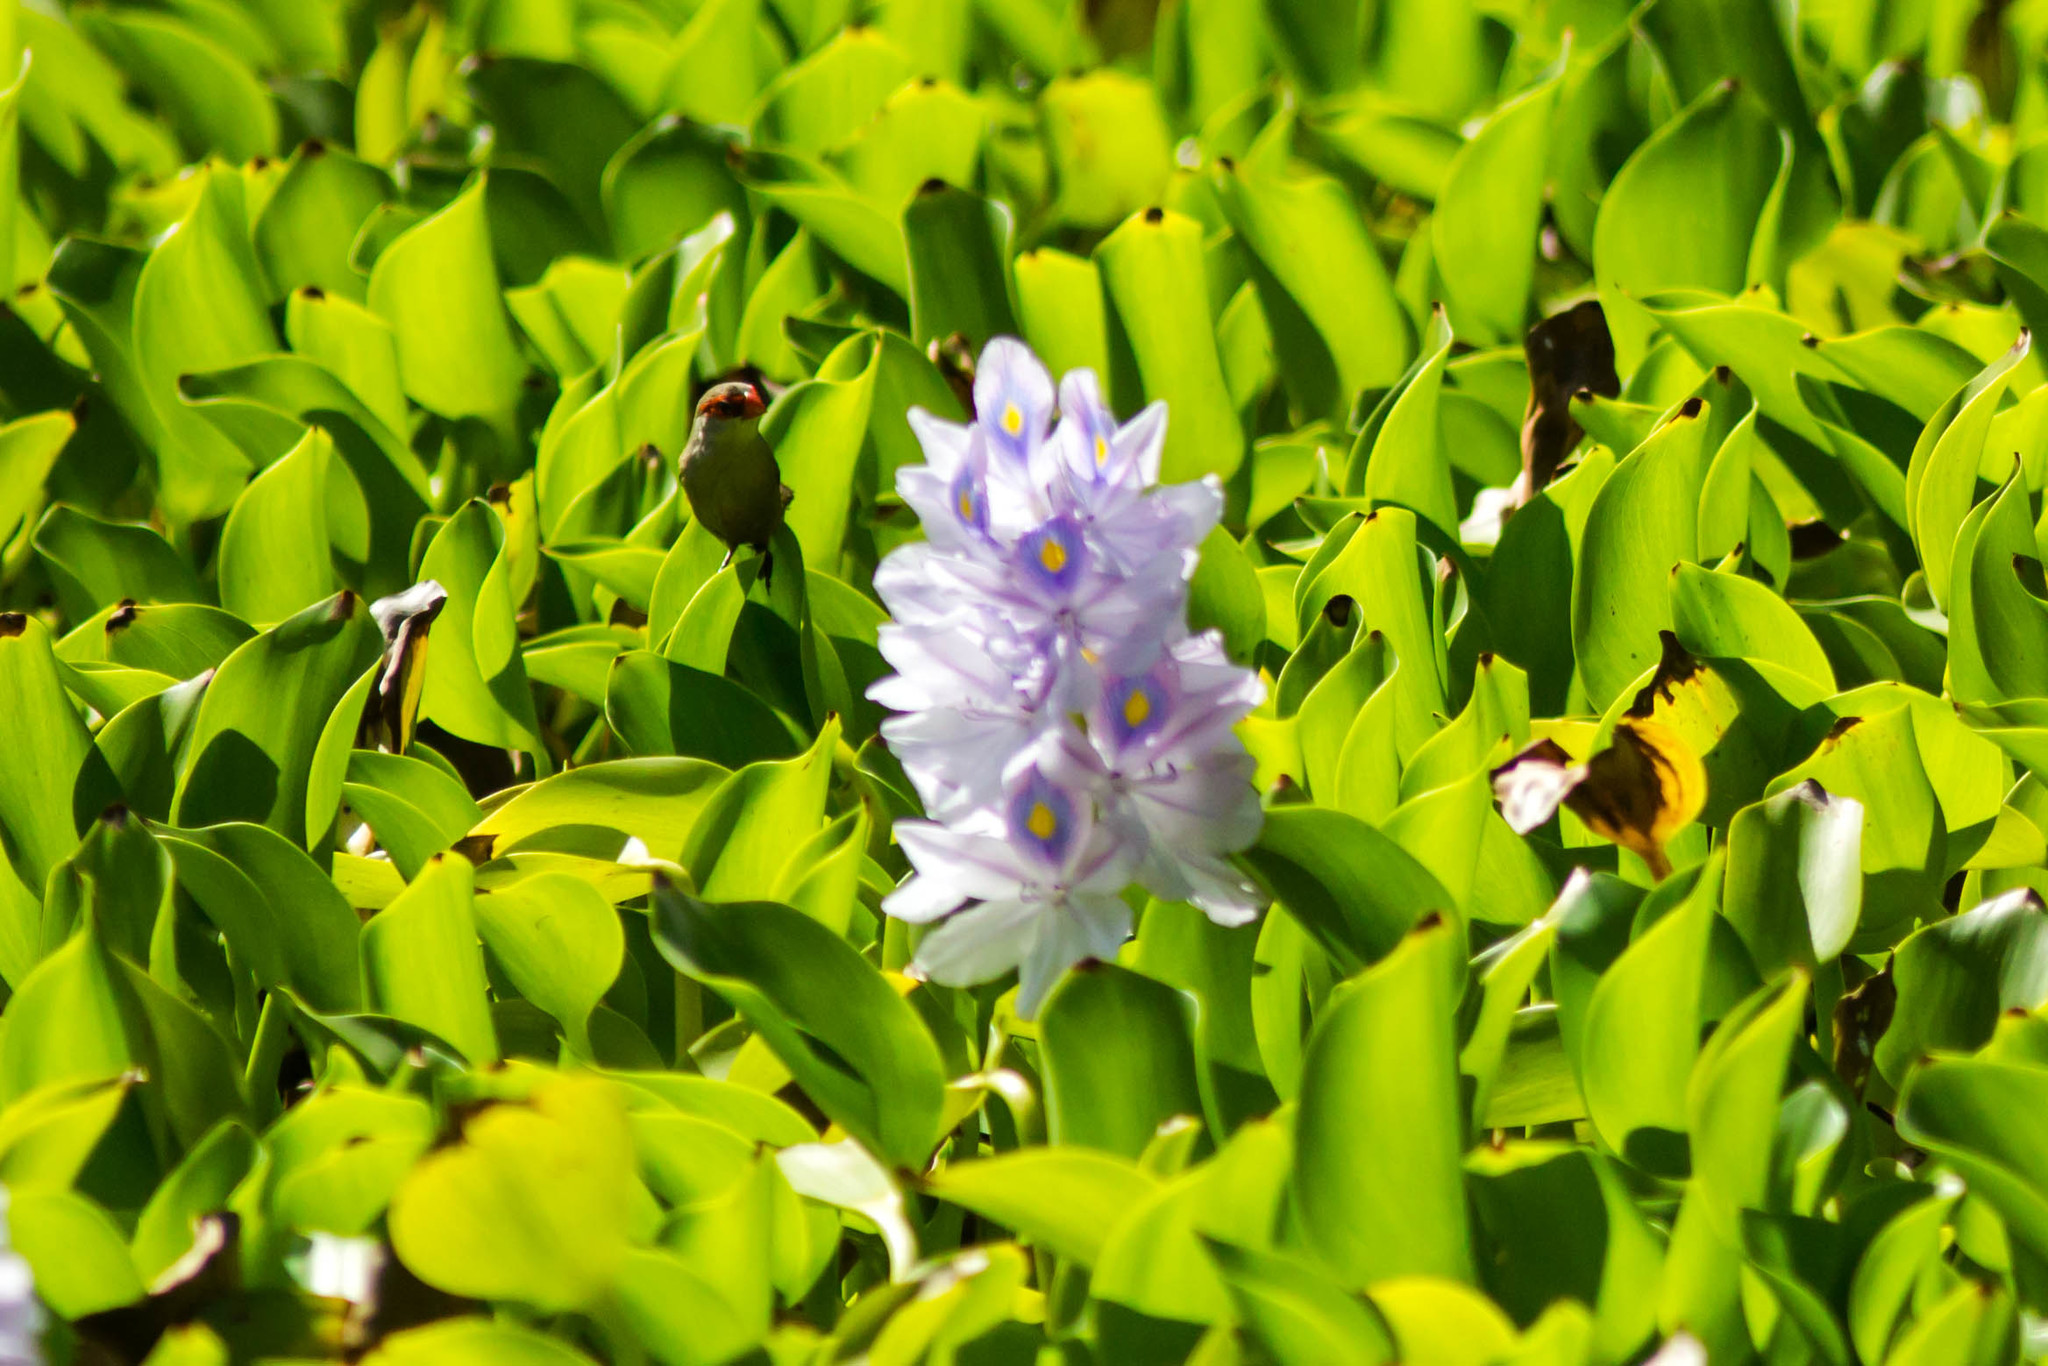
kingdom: Animalia
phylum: Chordata
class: Aves
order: Passeriformes
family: Estrildidae
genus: Estrilda
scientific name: Estrilda astrild
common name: Common waxbill
